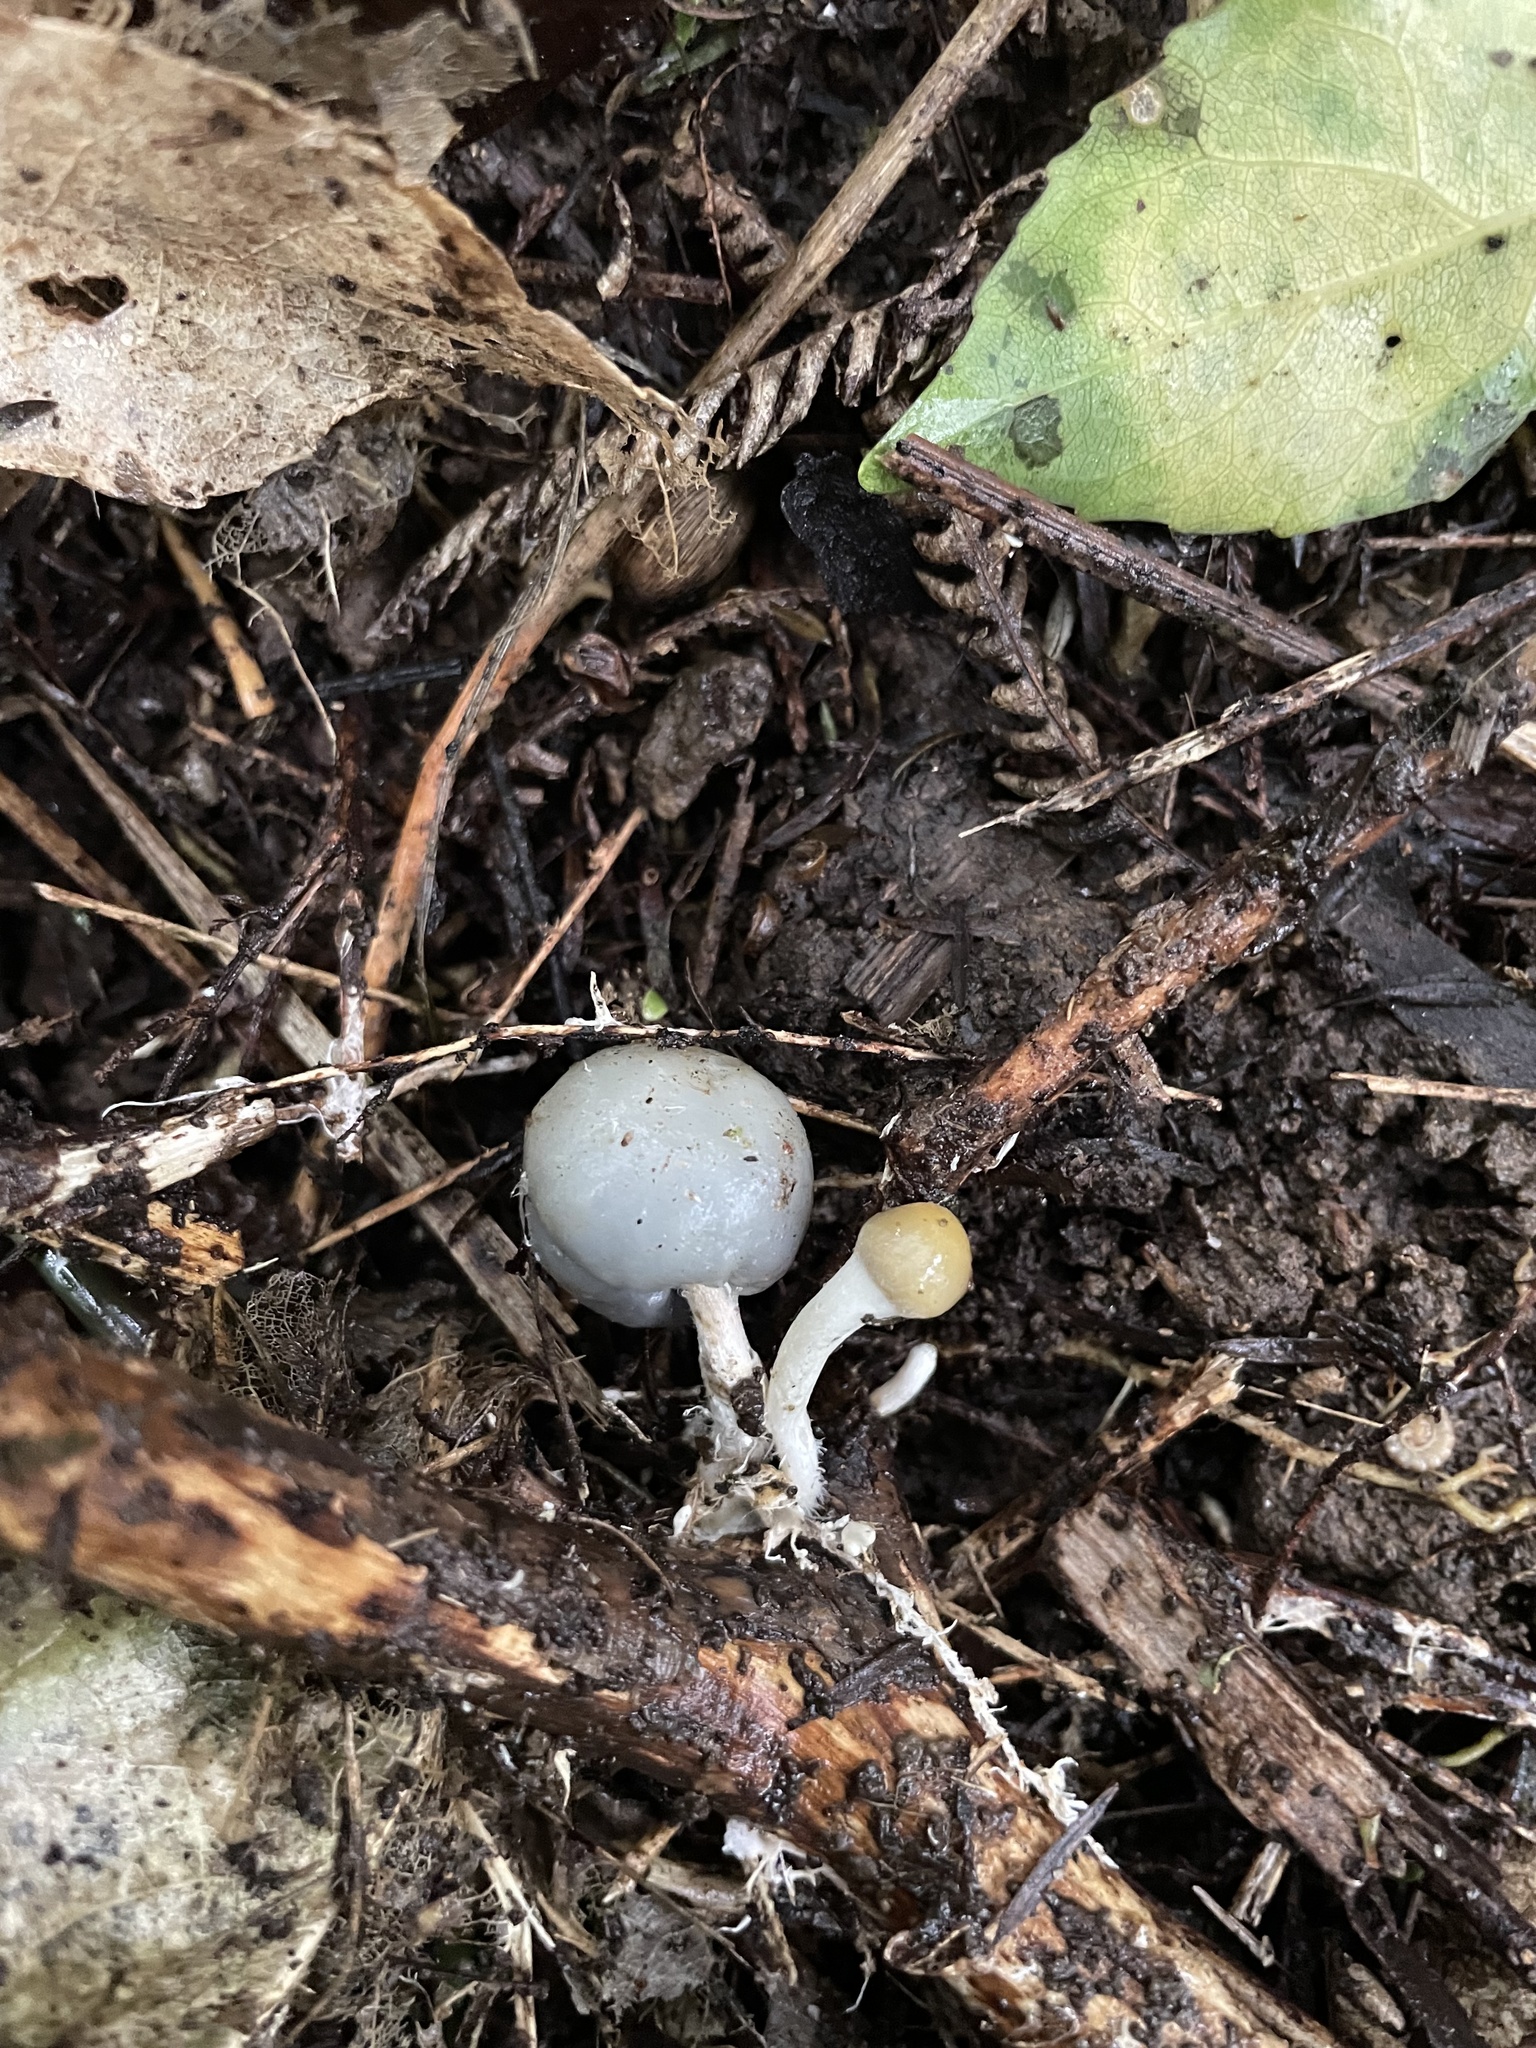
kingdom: Fungi
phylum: Basidiomycota
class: Agaricomycetes
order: Agaricales
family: Hymenogastraceae
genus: Psilocybe
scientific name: Psilocybe weraroa
